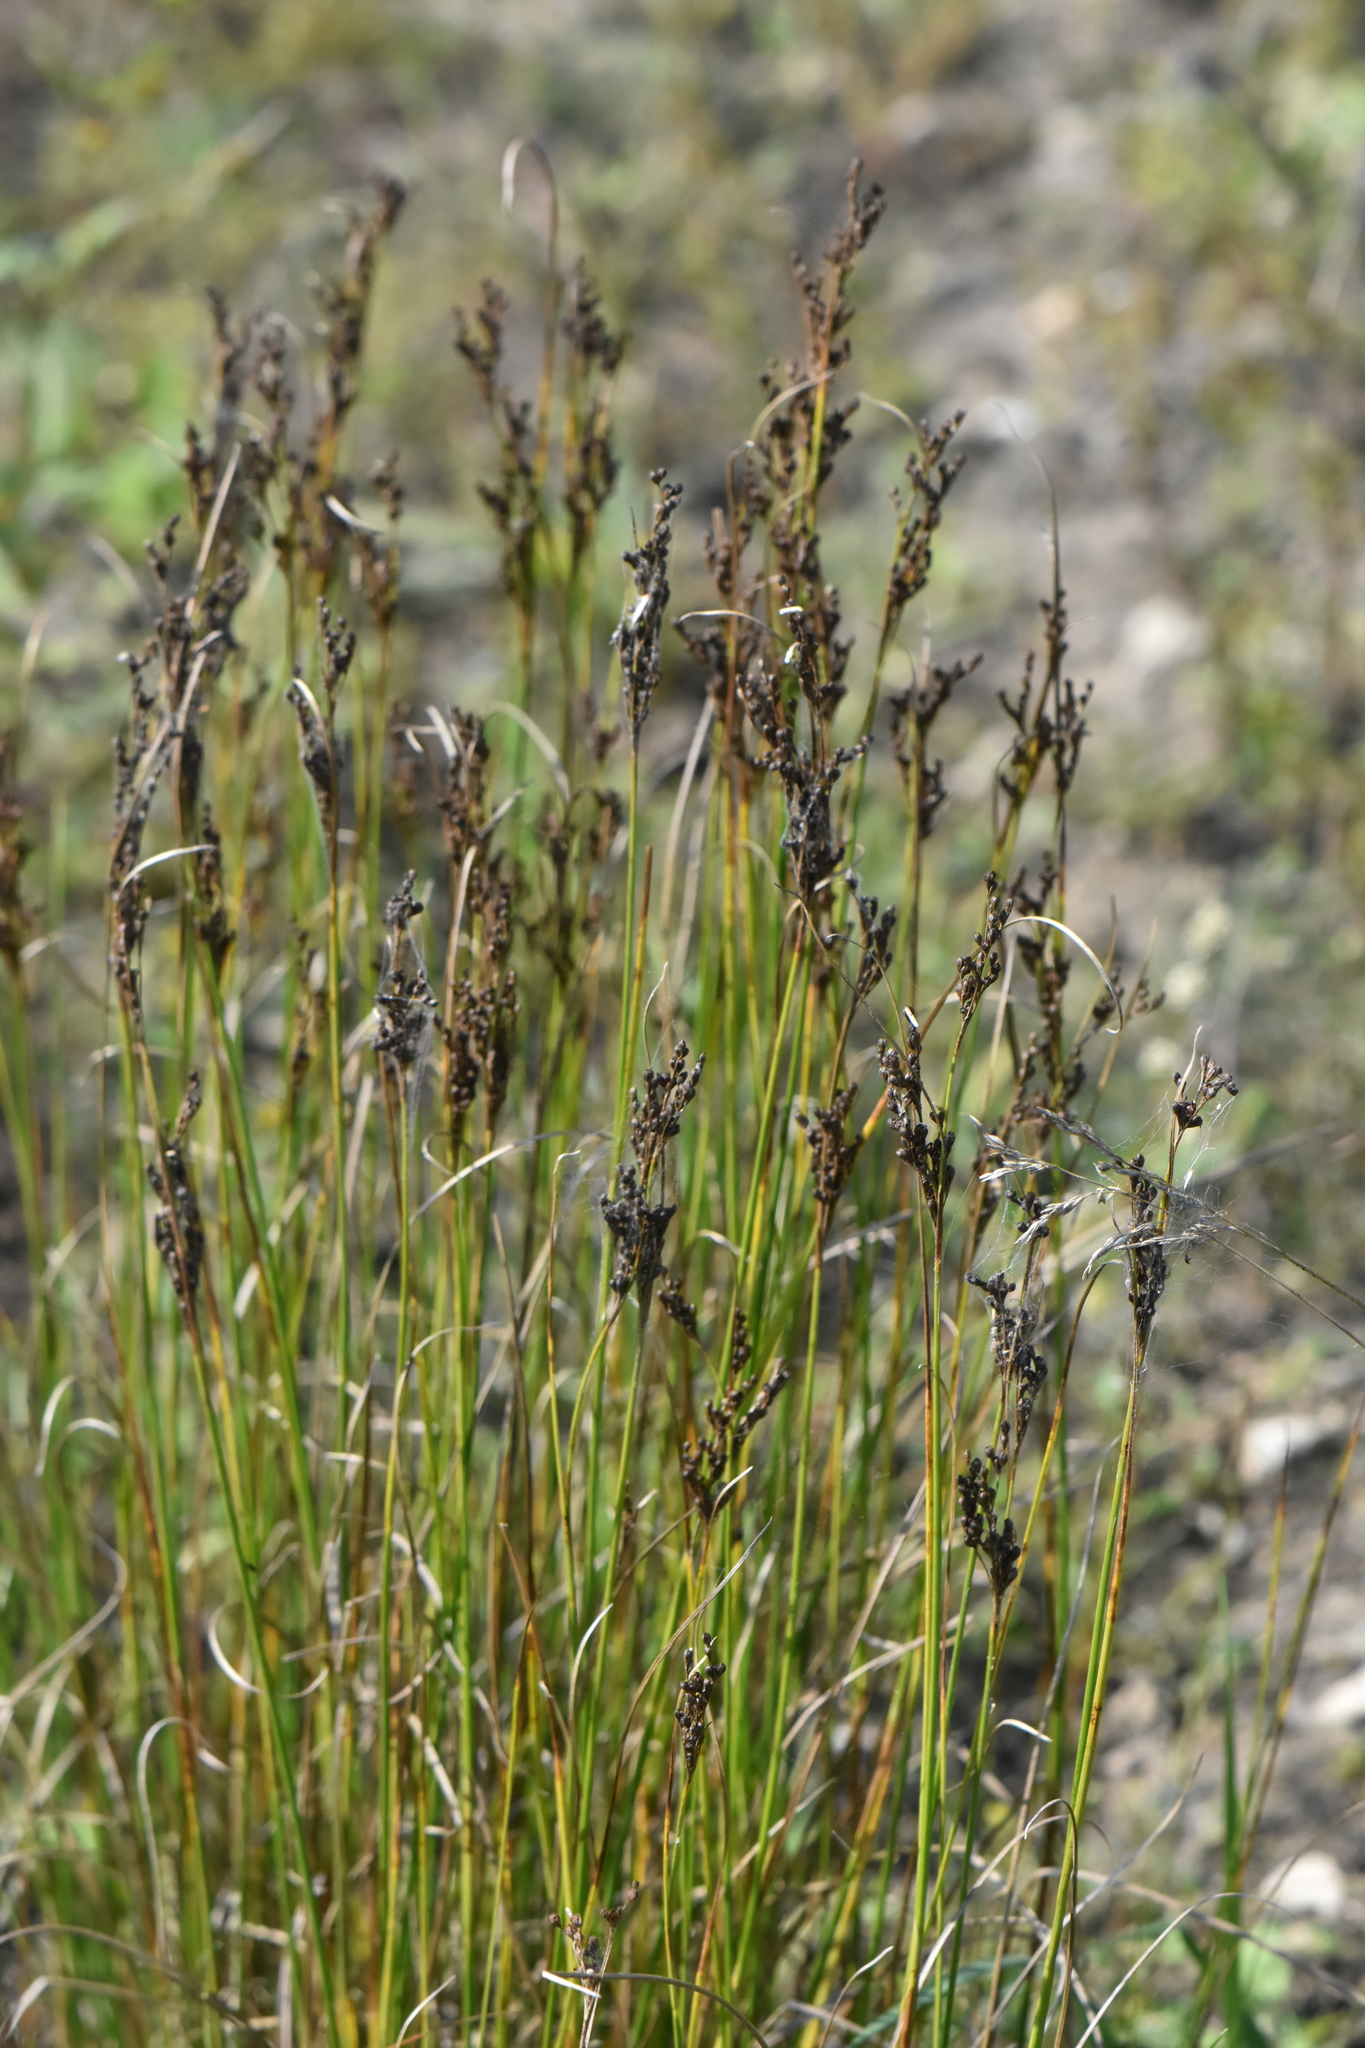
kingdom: Plantae
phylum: Tracheophyta
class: Liliopsida
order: Poales
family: Juncaceae
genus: Juncus
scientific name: Juncus compressus
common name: Round-fruited rush
